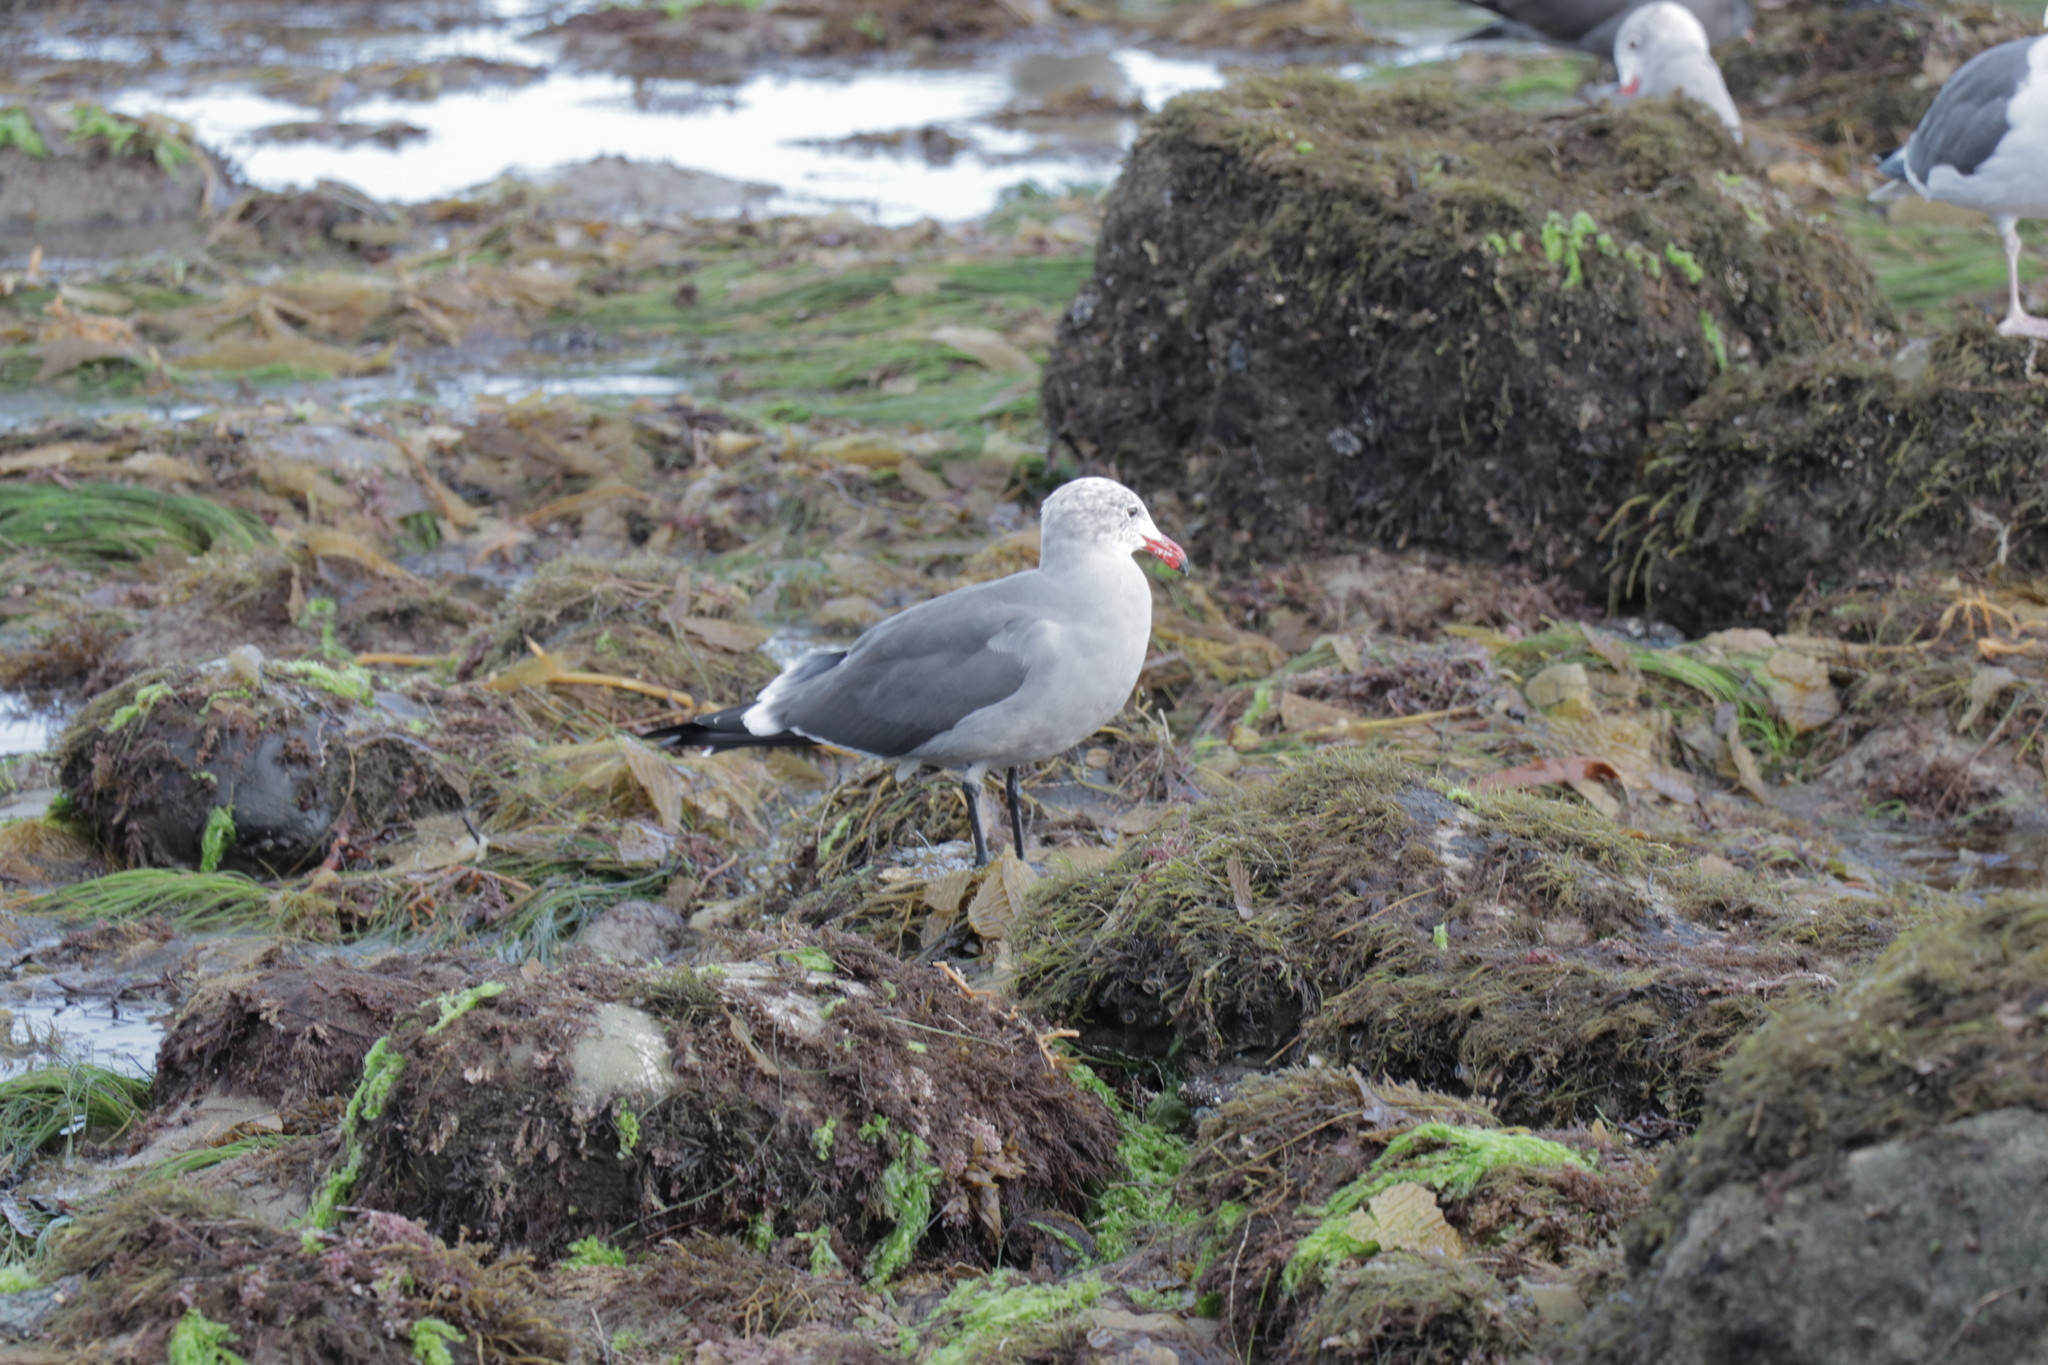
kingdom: Animalia
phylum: Chordata
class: Aves
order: Charadriiformes
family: Laridae
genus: Larus
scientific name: Larus heermanni
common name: Heermann's gull
